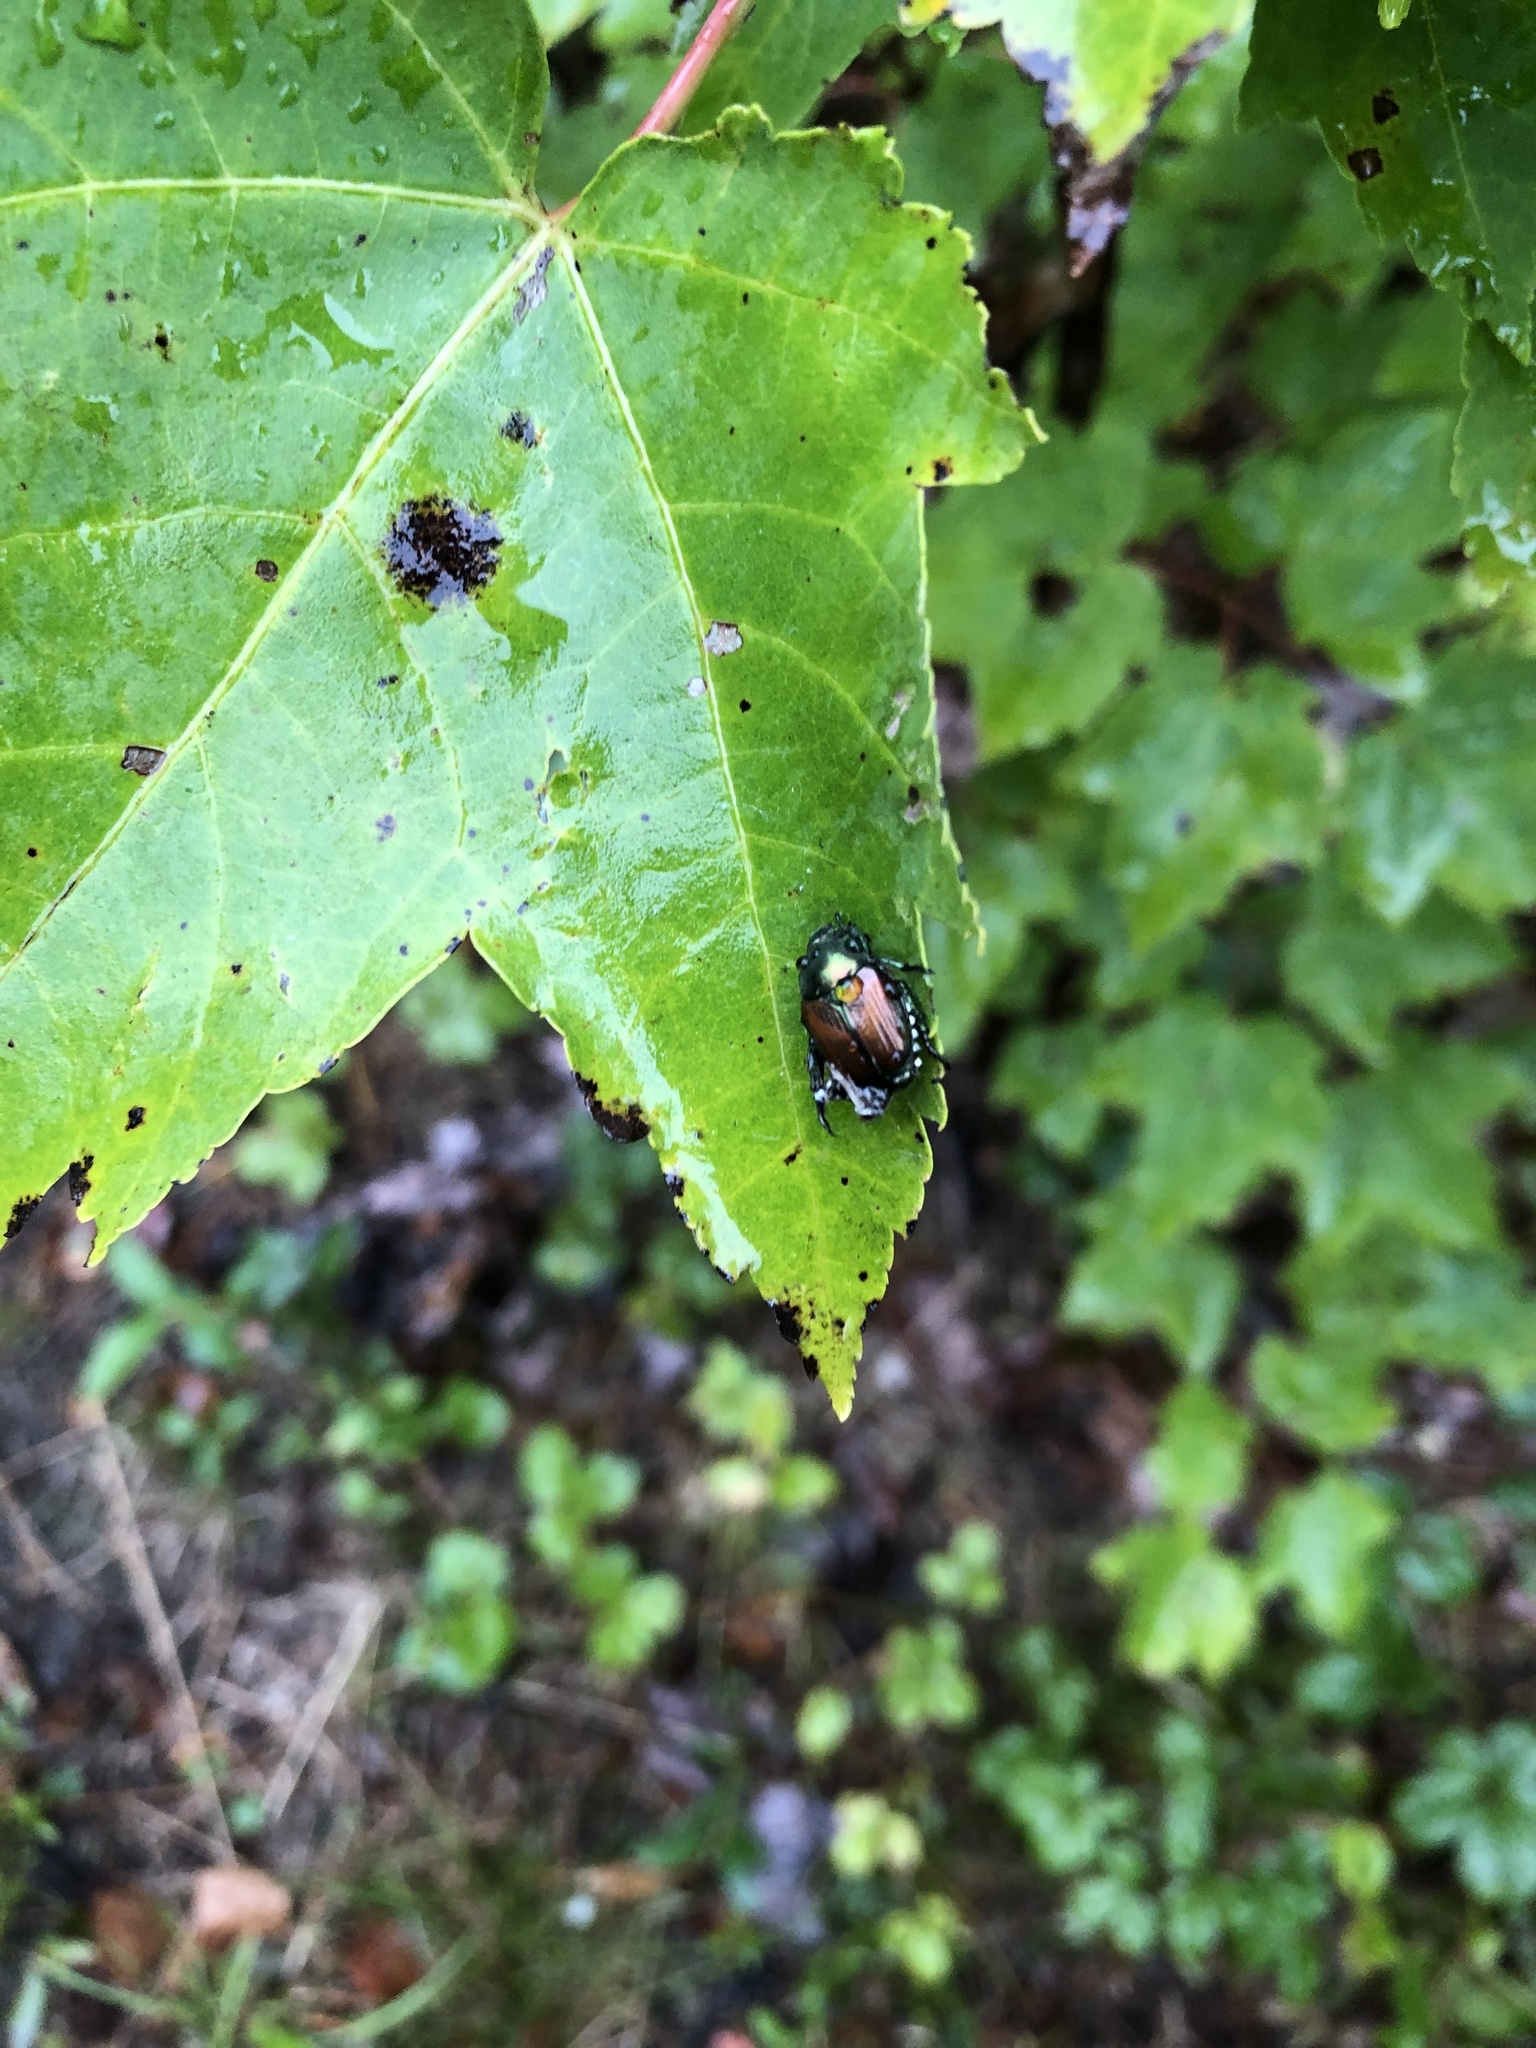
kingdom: Animalia
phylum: Arthropoda
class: Insecta
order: Coleoptera
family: Scarabaeidae
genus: Popillia
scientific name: Popillia japonica
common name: Japanese beetle
